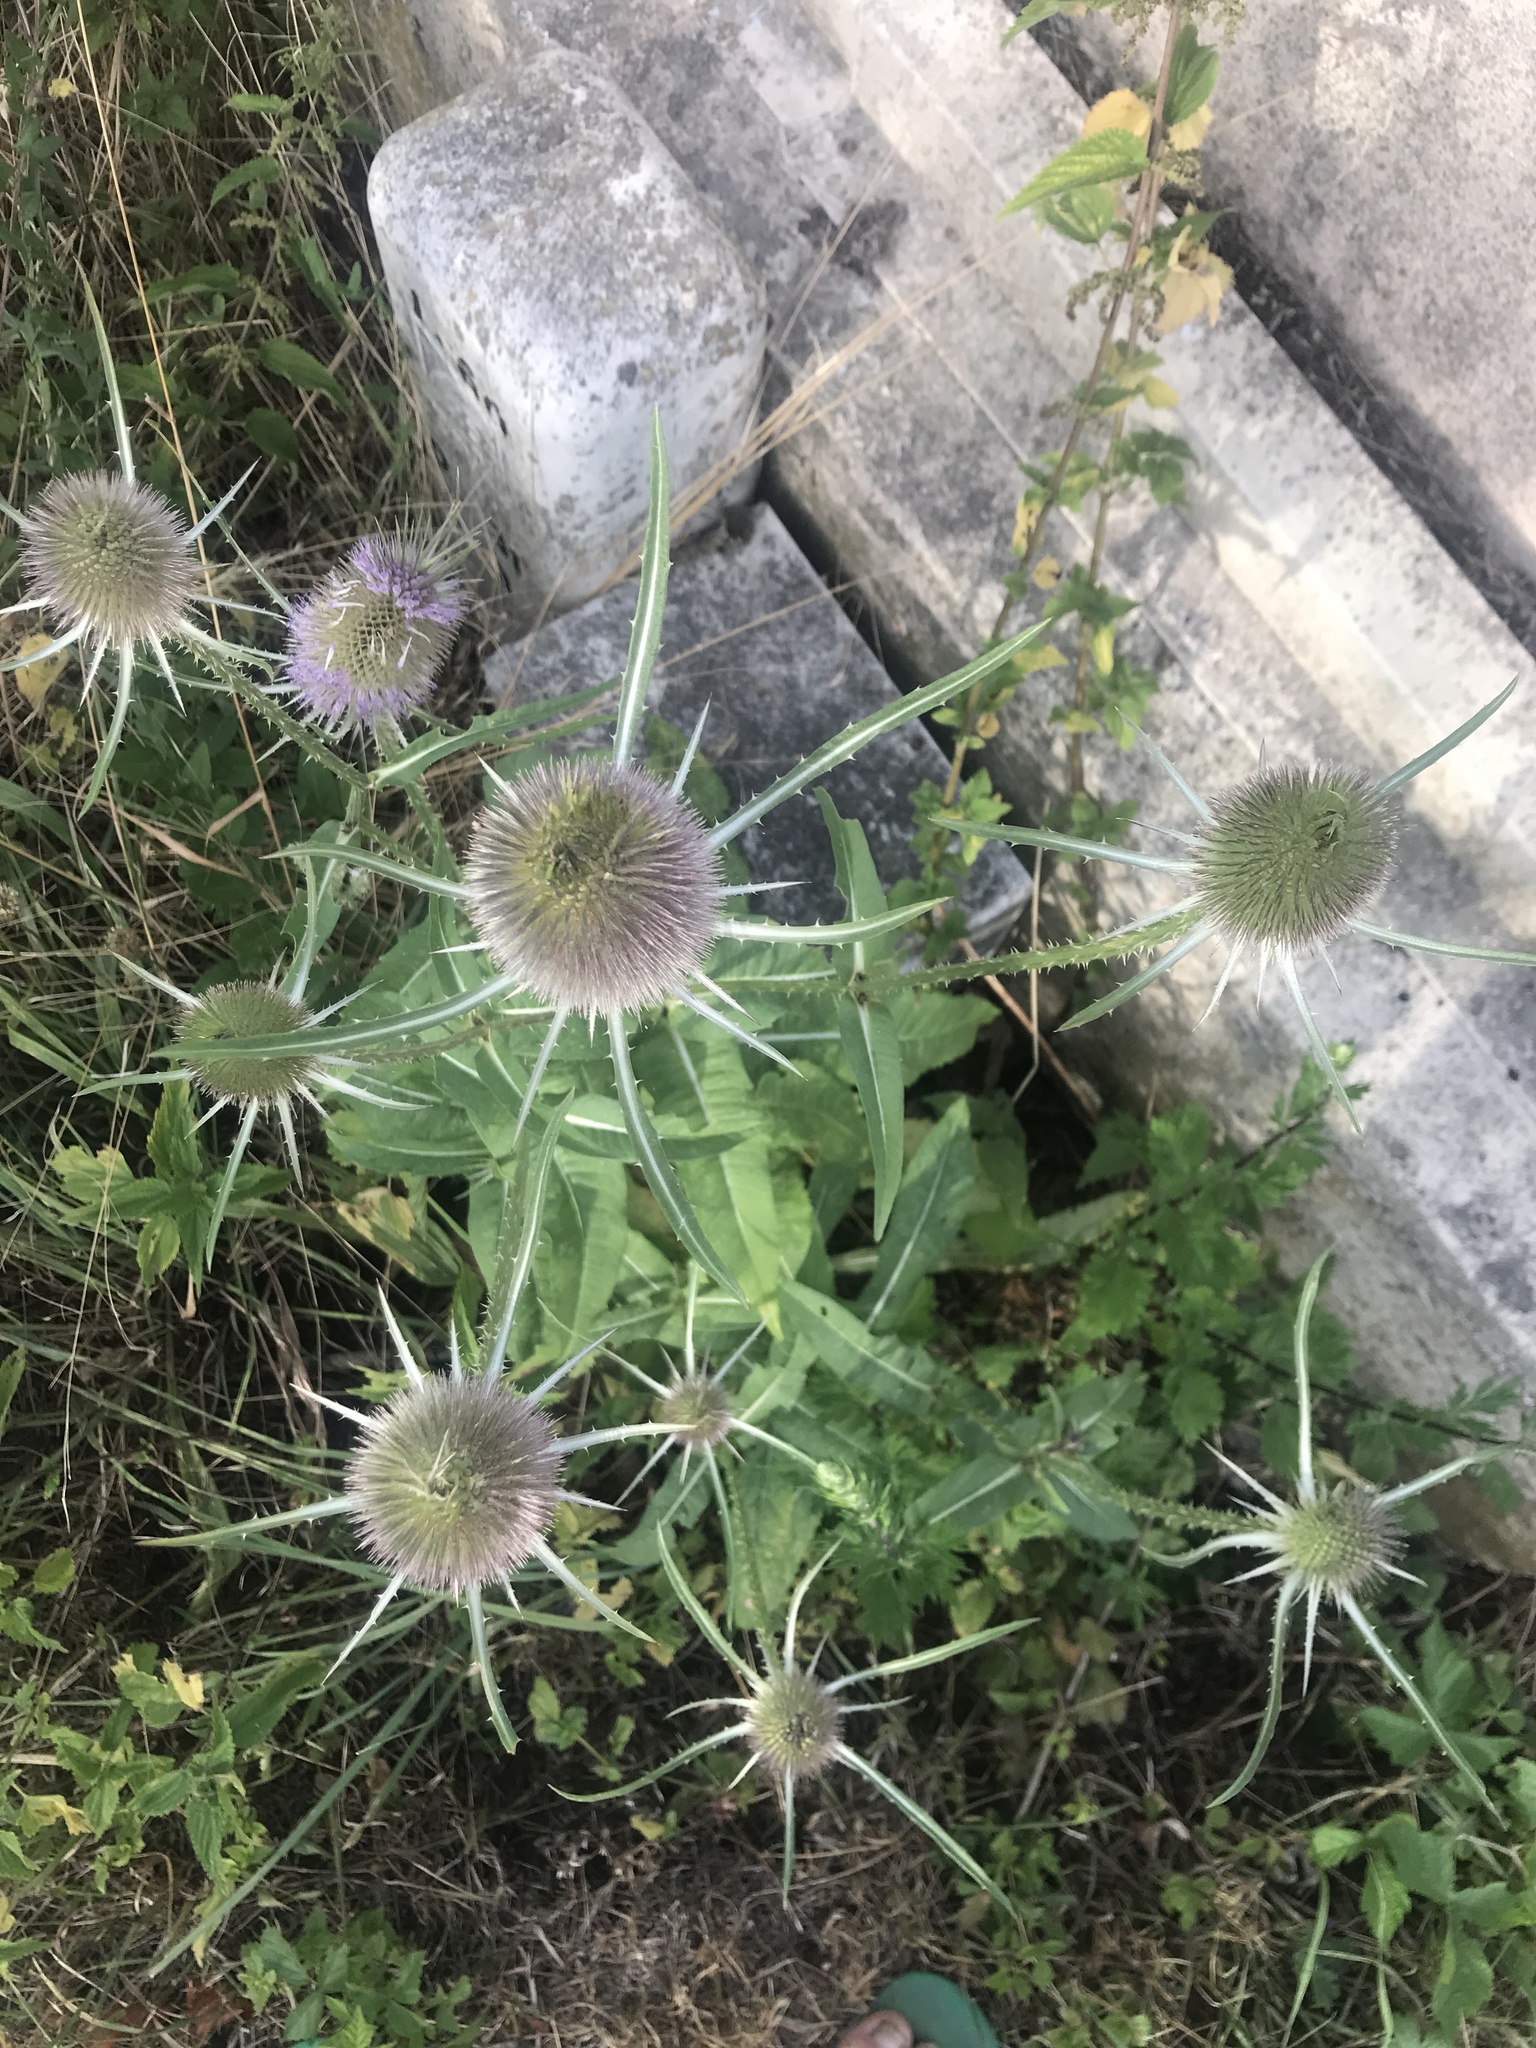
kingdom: Plantae
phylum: Tracheophyta
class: Magnoliopsida
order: Dipsacales
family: Caprifoliaceae
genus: Dipsacus
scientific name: Dipsacus fullonum
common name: Teasel
